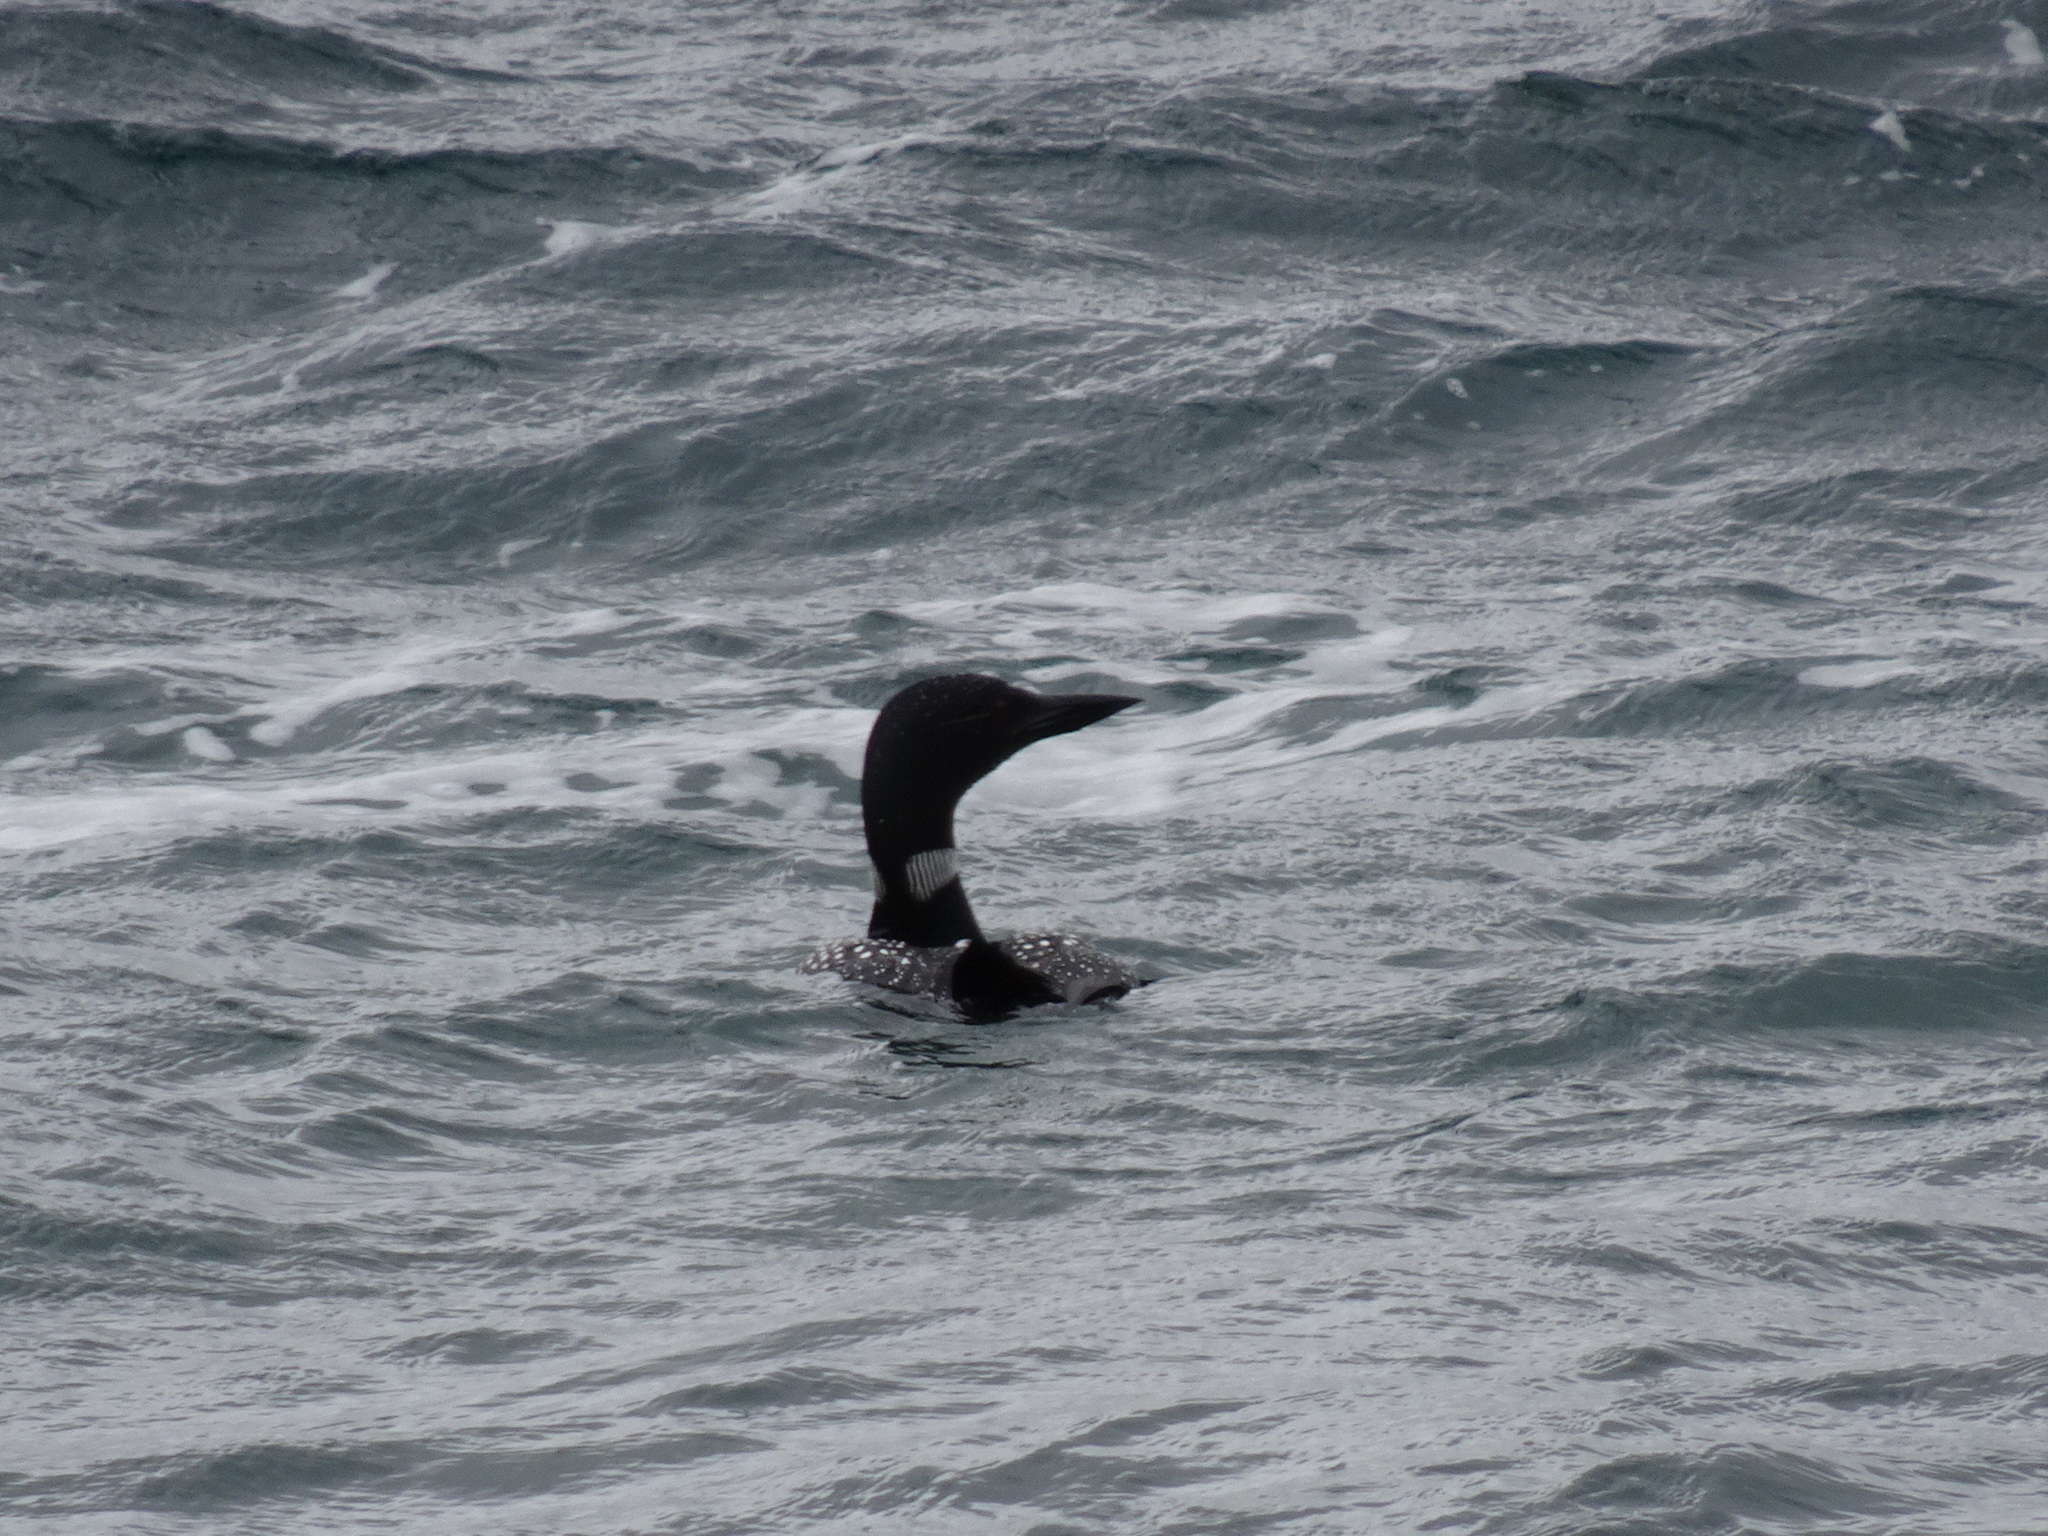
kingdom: Animalia
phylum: Chordata
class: Aves
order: Gaviiformes
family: Gaviidae
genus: Gavia
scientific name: Gavia immer
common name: Common loon
